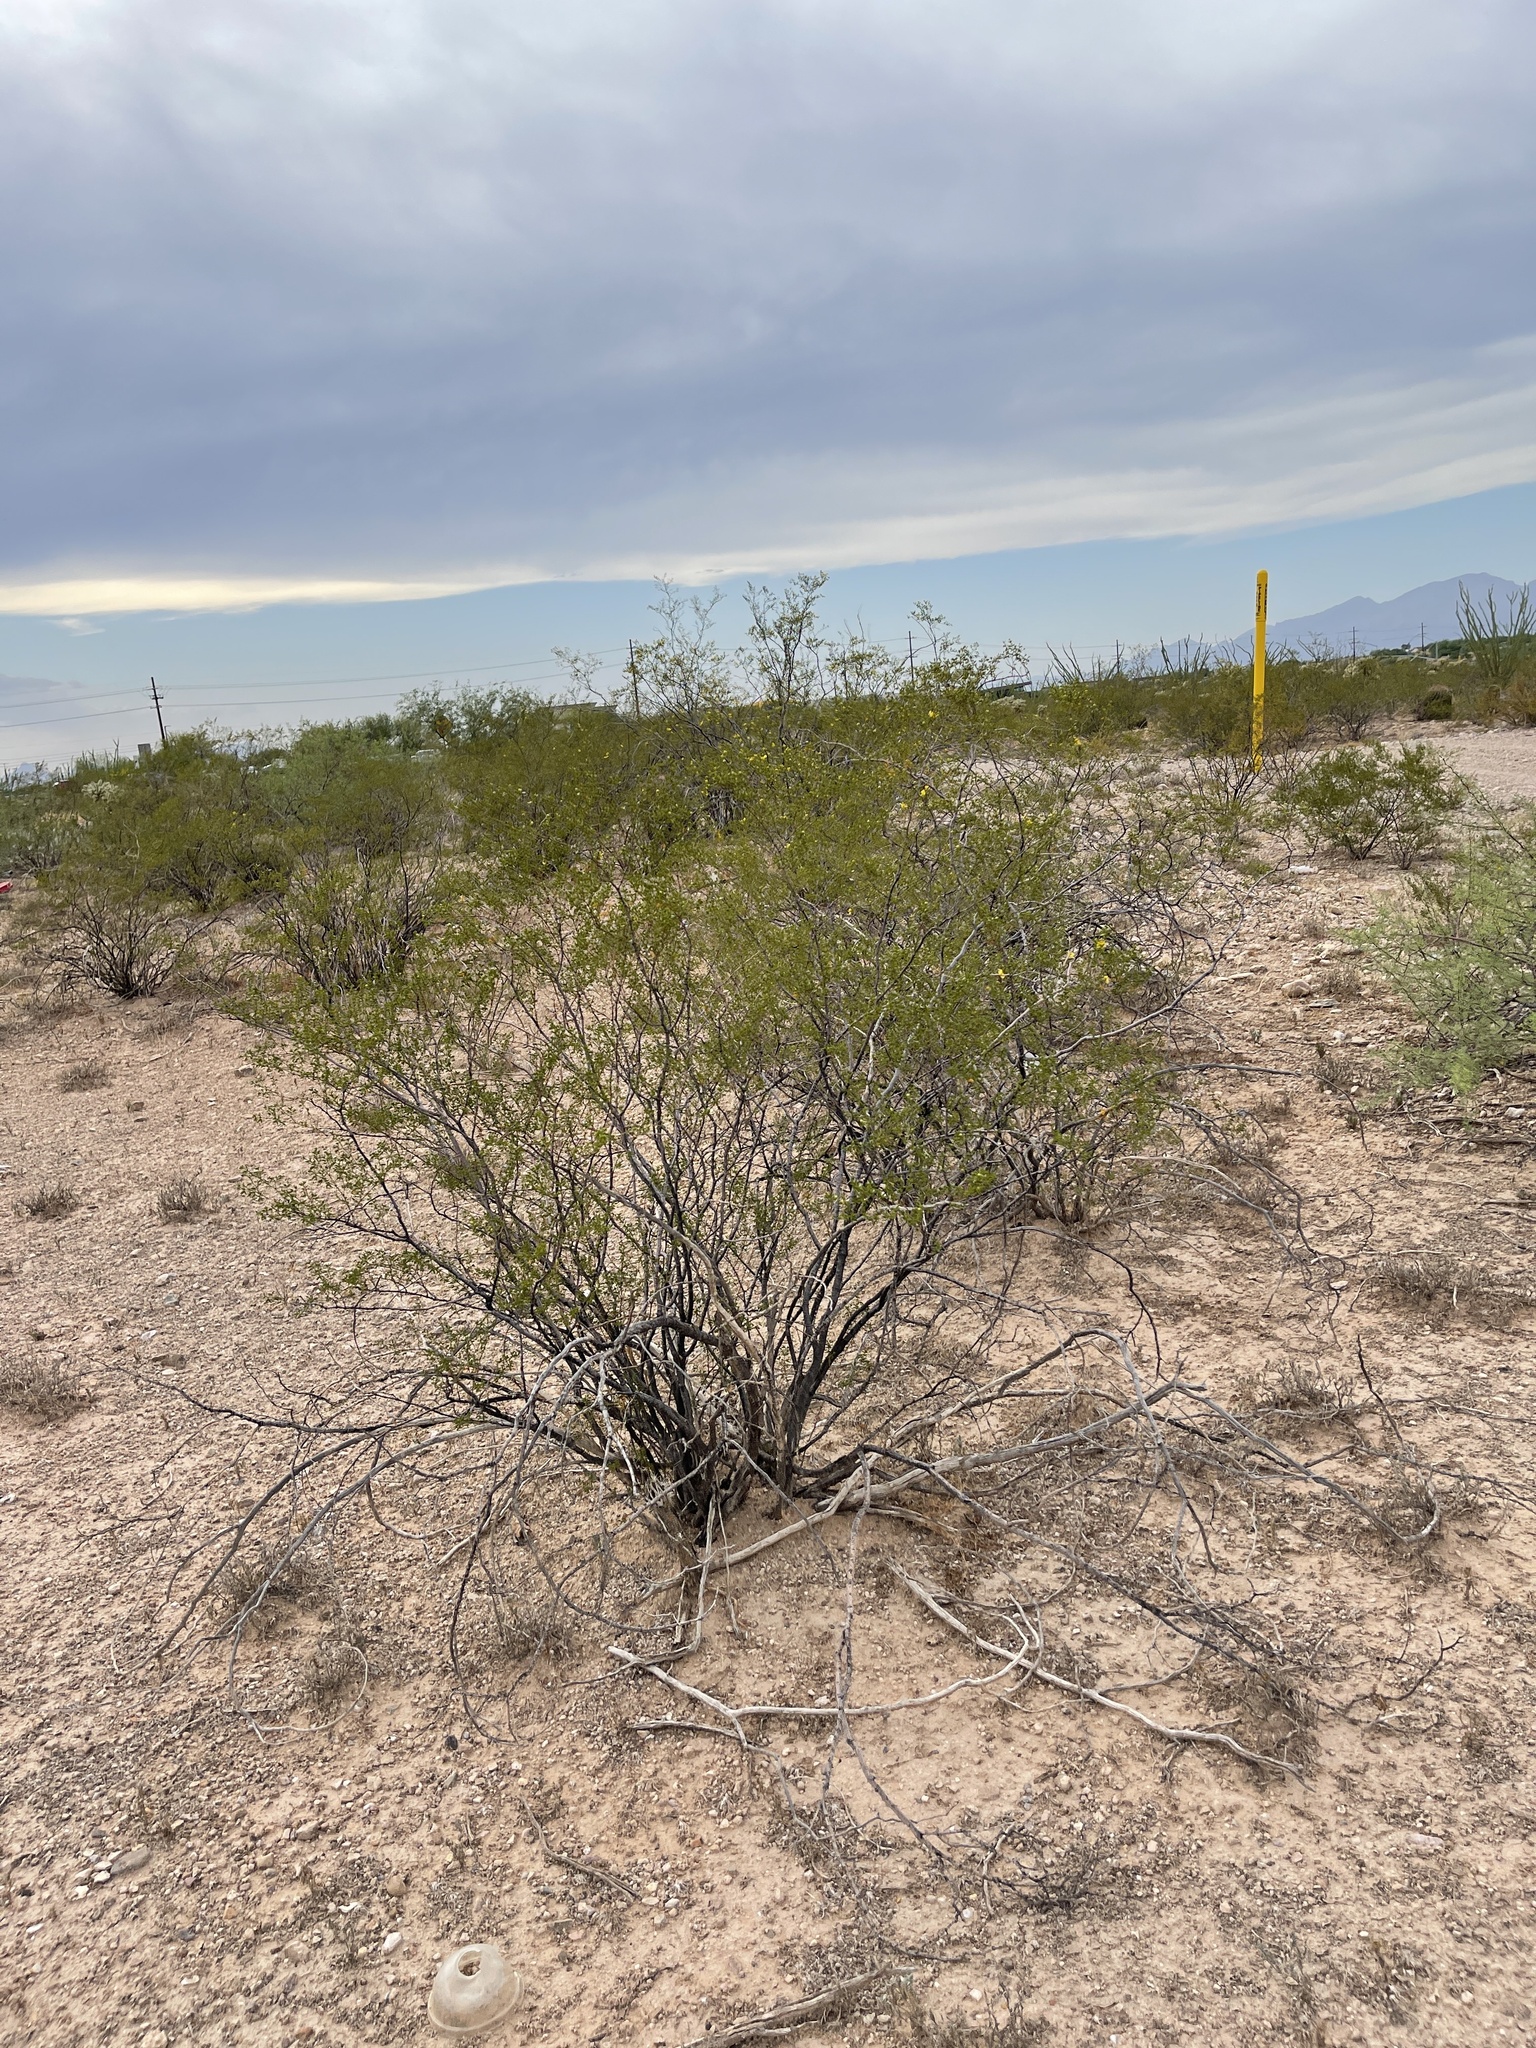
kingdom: Plantae
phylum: Tracheophyta
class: Magnoliopsida
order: Zygophyllales
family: Zygophyllaceae
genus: Larrea
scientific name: Larrea tridentata
